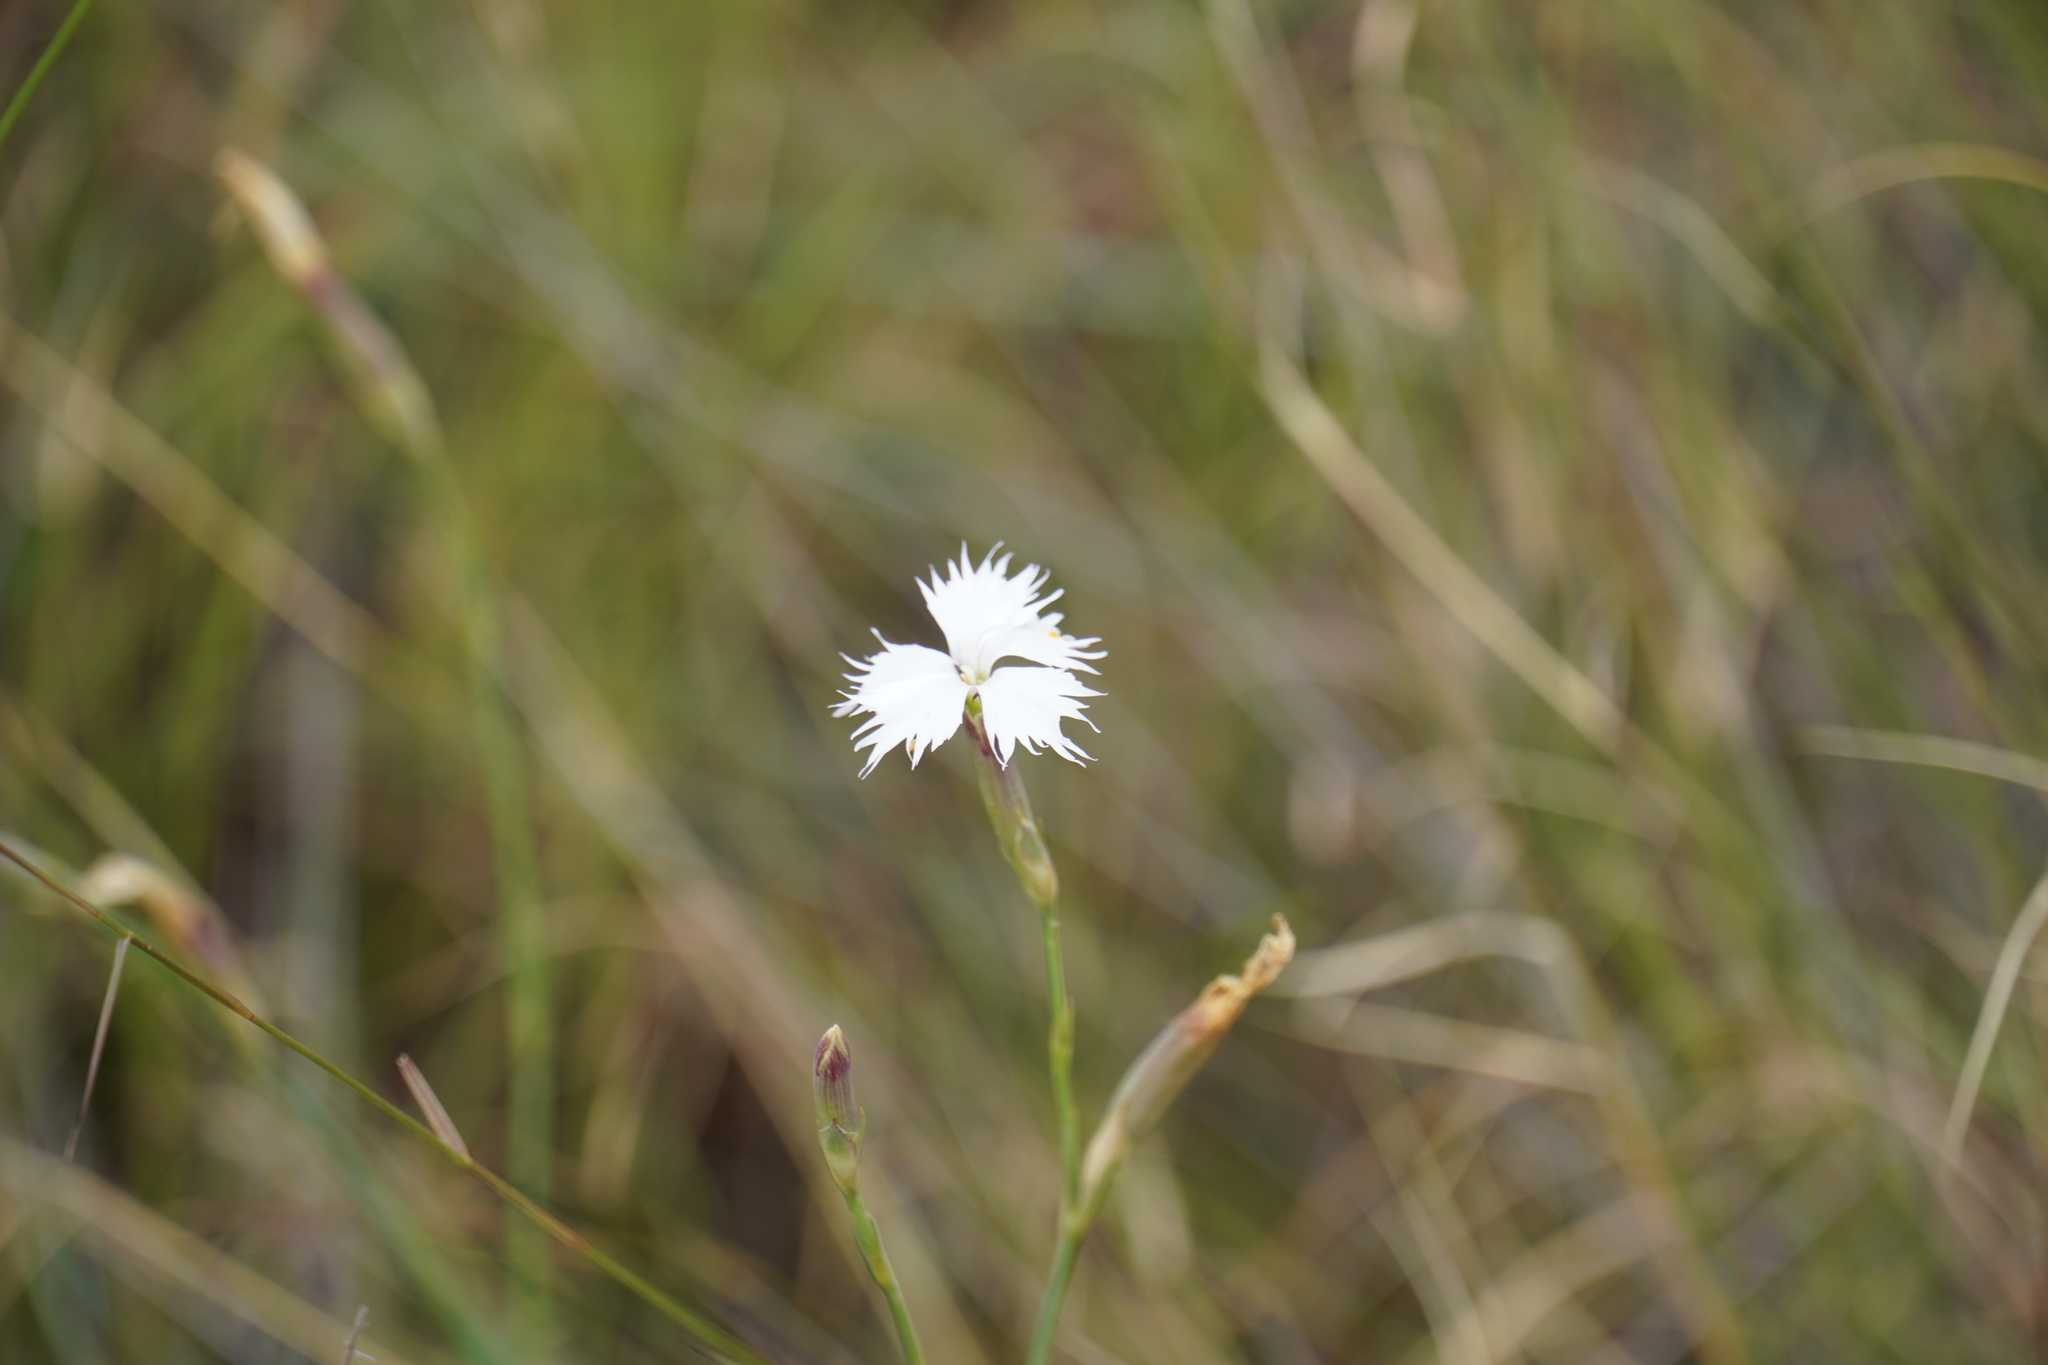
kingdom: Plantae
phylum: Tracheophyta
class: Magnoliopsida
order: Caryophyllales
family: Caryophyllaceae
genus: Dianthus
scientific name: Dianthus mooiensis
